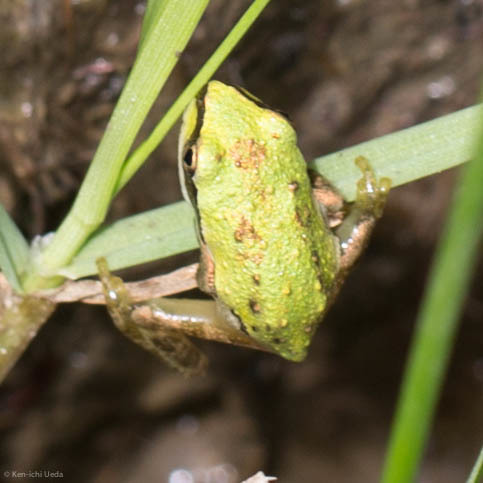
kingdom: Animalia
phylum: Chordata
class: Amphibia
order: Anura
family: Hylidae
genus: Pseudacris
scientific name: Pseudacris regilla
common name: Pacific chorus frog
